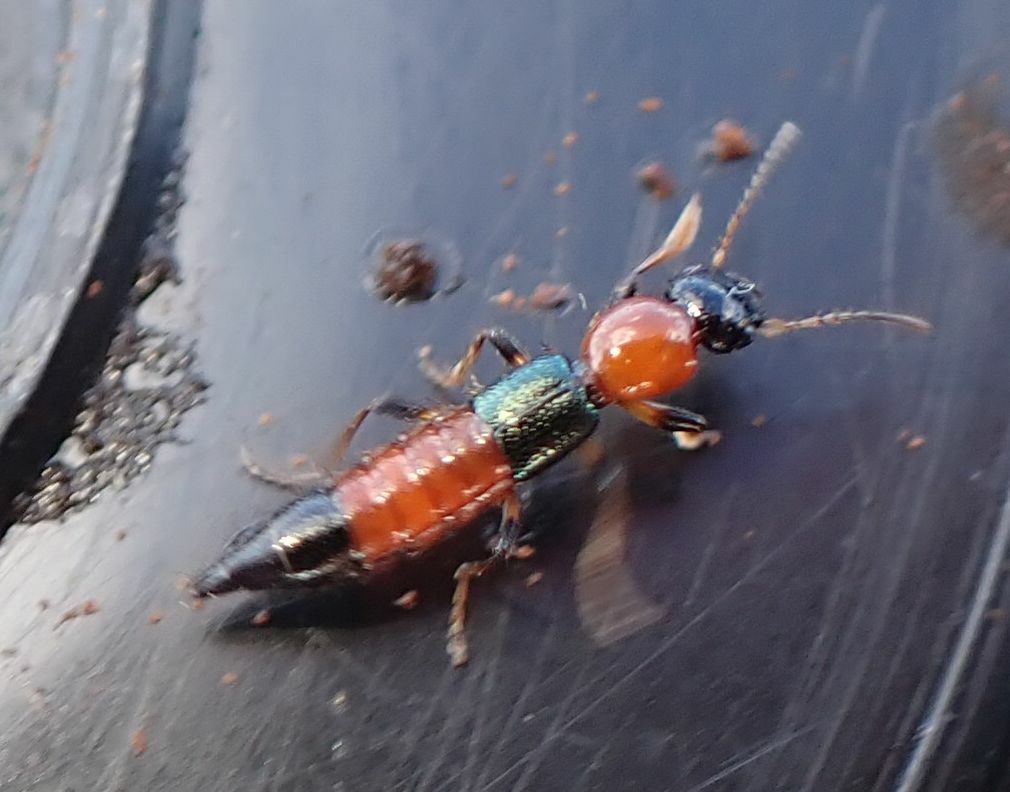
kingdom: Animalia
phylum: Arthropoda
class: Insecta
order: Coleoptera
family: Staphylinidae
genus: Paederus
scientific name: Paederus littoralis
